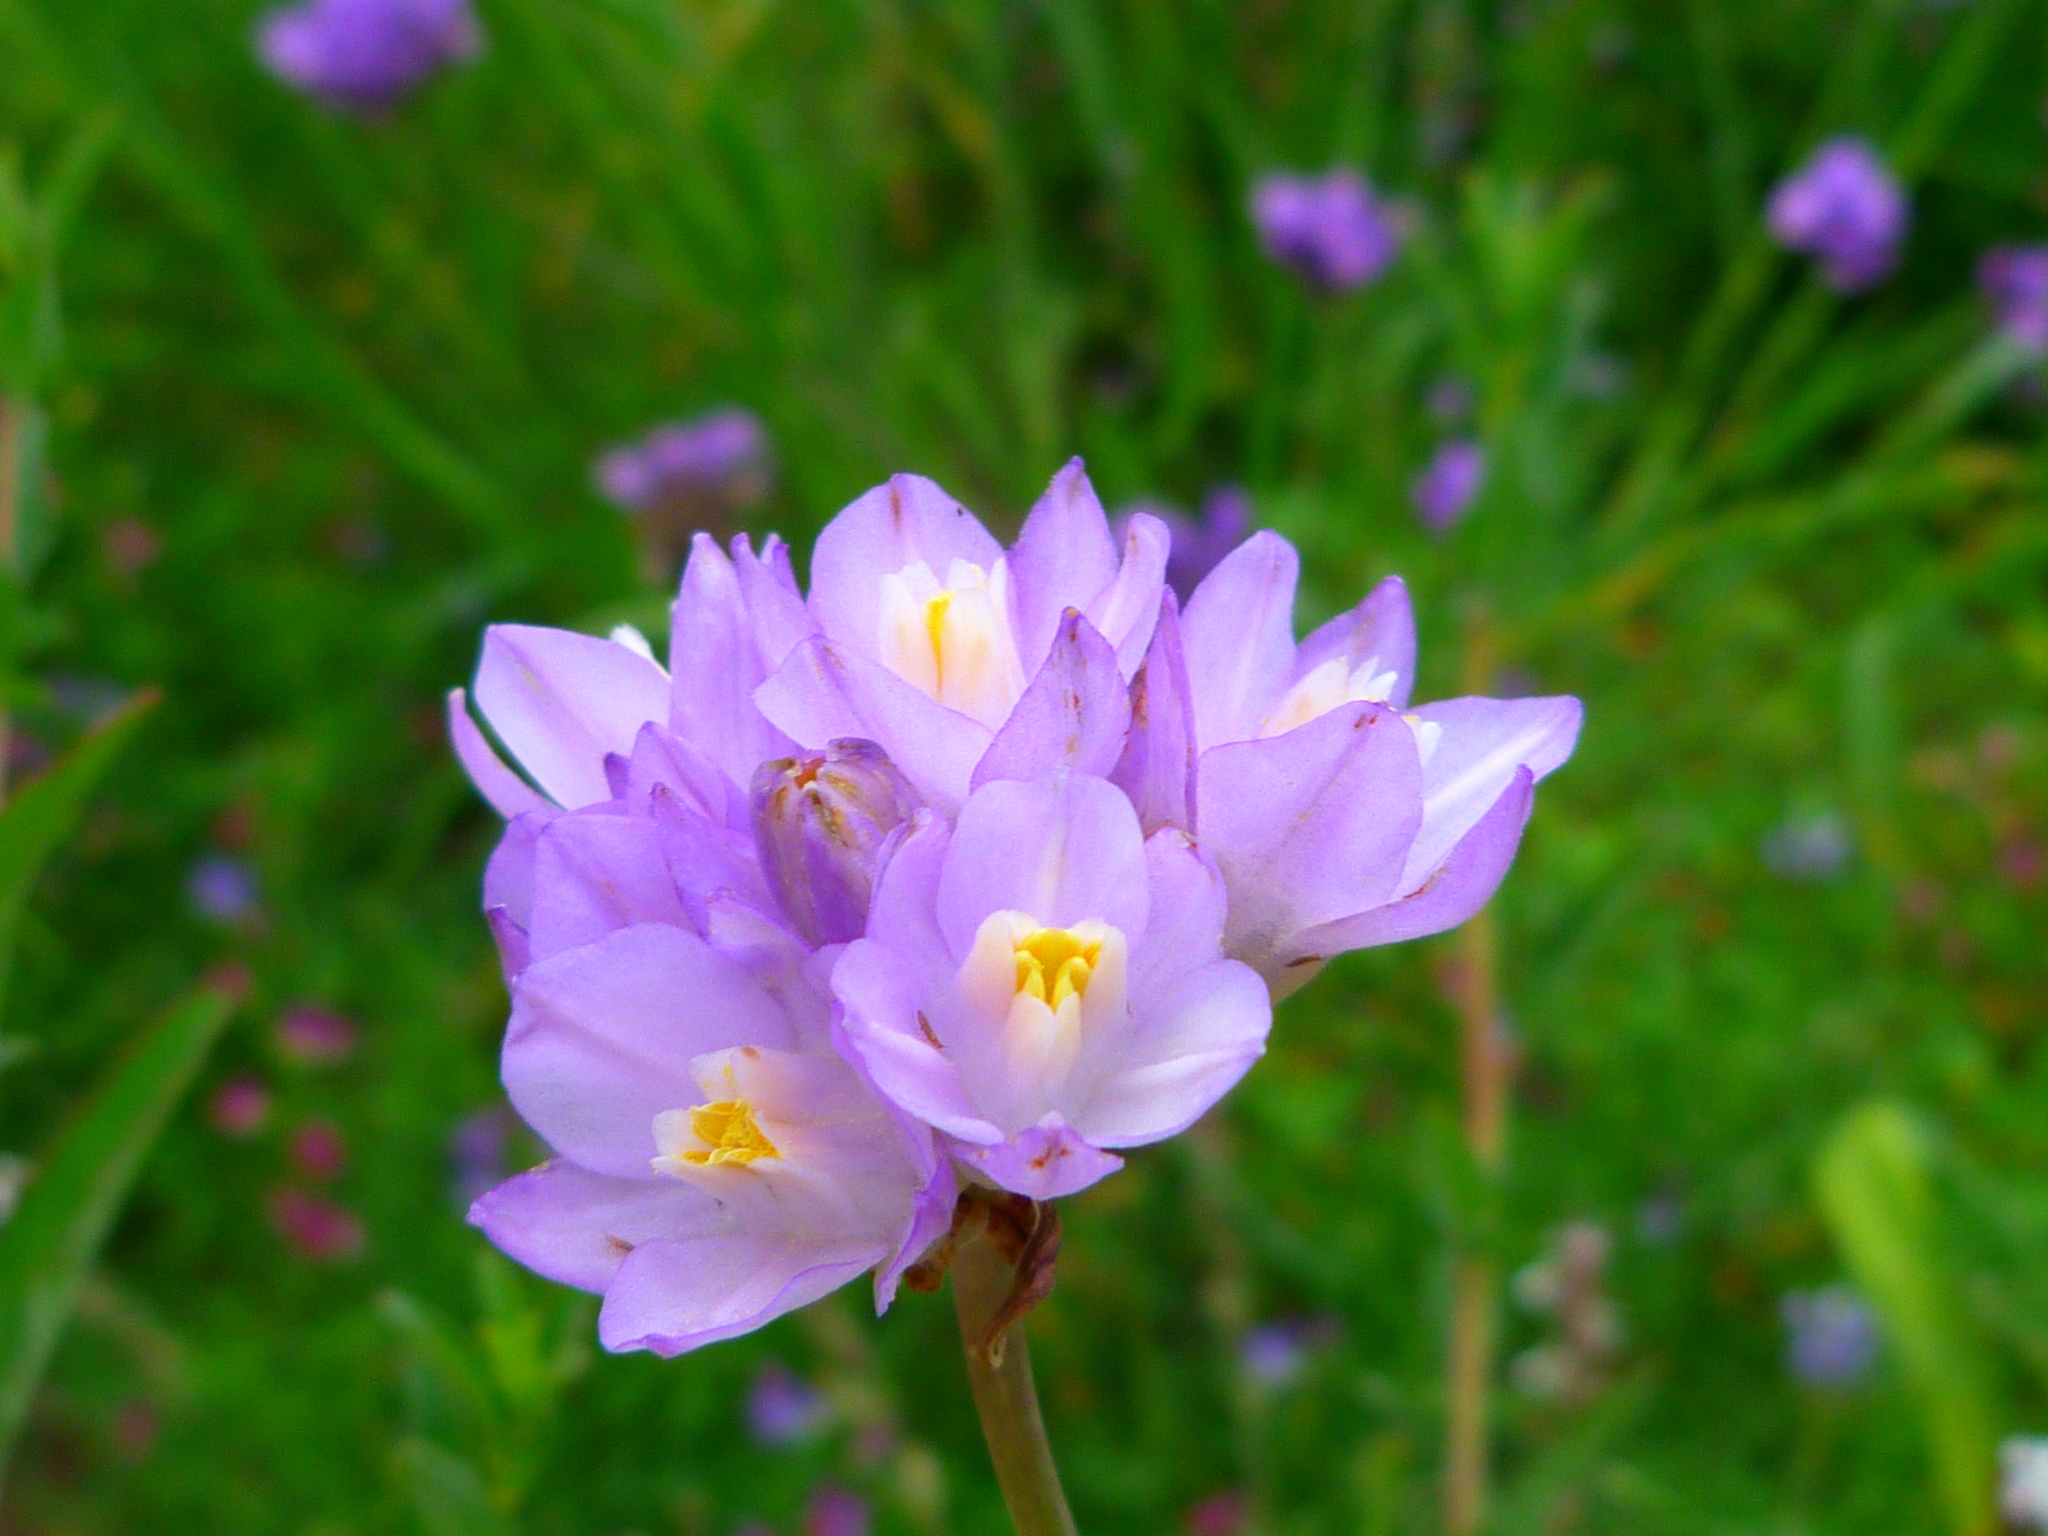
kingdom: Plantae
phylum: Tracheophyta
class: Liliopsida
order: Asparagales
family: Asparagaceae
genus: Dipterostemon
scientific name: Dipterostemon capitatus
